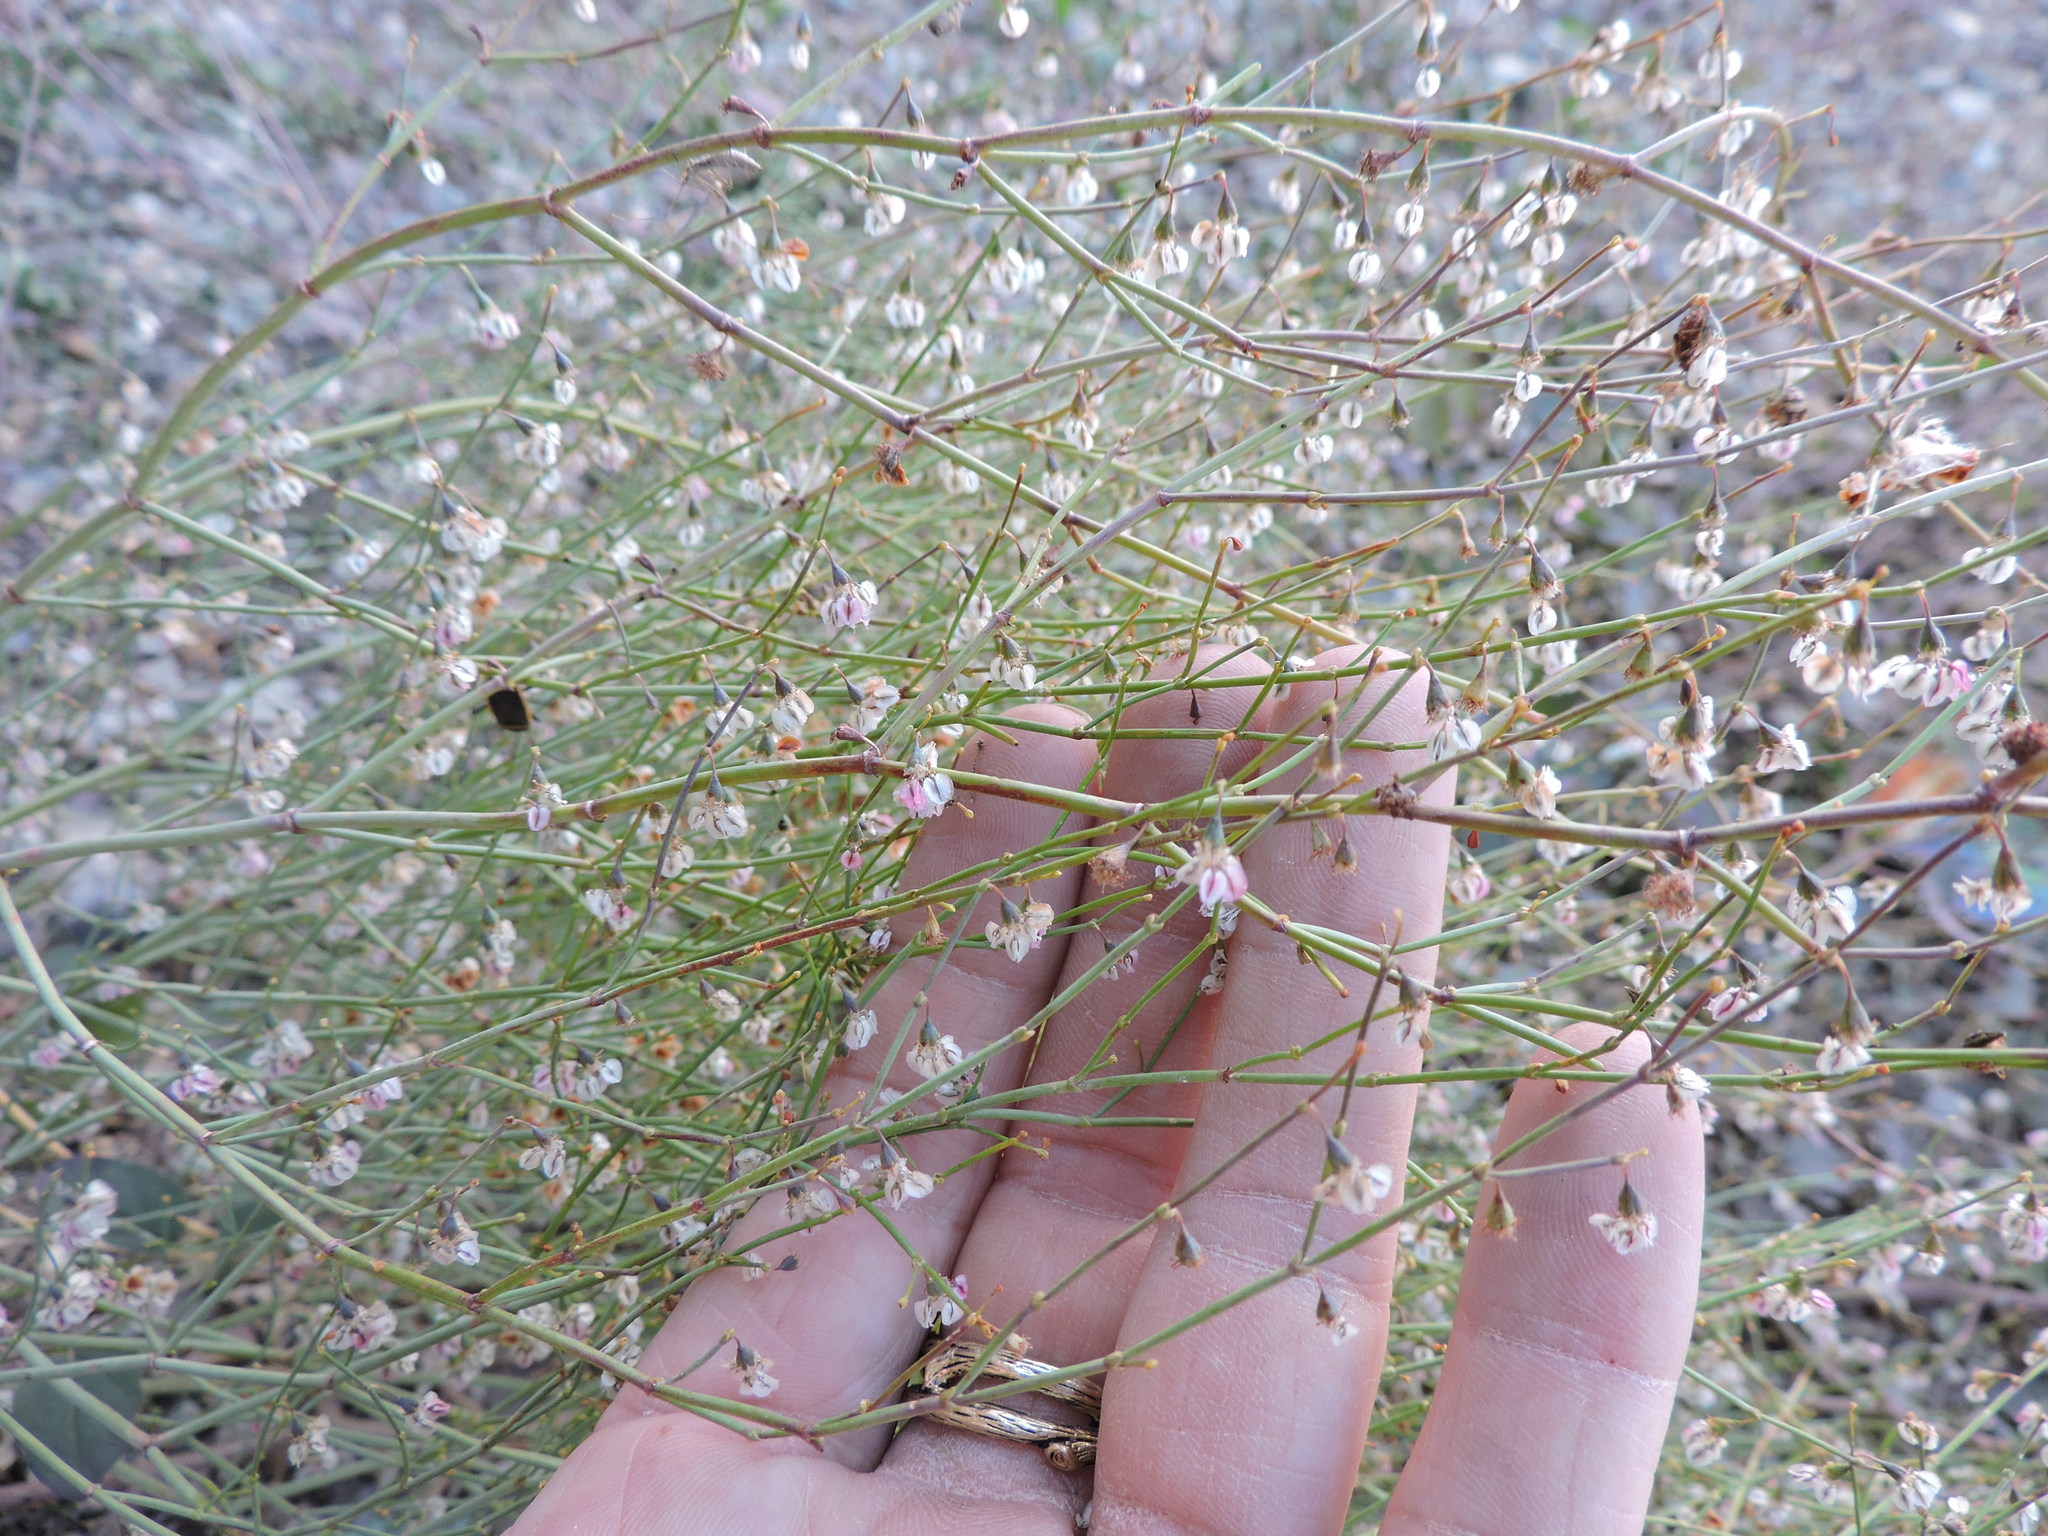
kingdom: Plantae
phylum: Tracheophyta
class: Magnoliopsida
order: Caryophyllales
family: Polygonaceae
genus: Eriogonum
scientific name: Eriogonum deflexum
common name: Skeleton-weed
